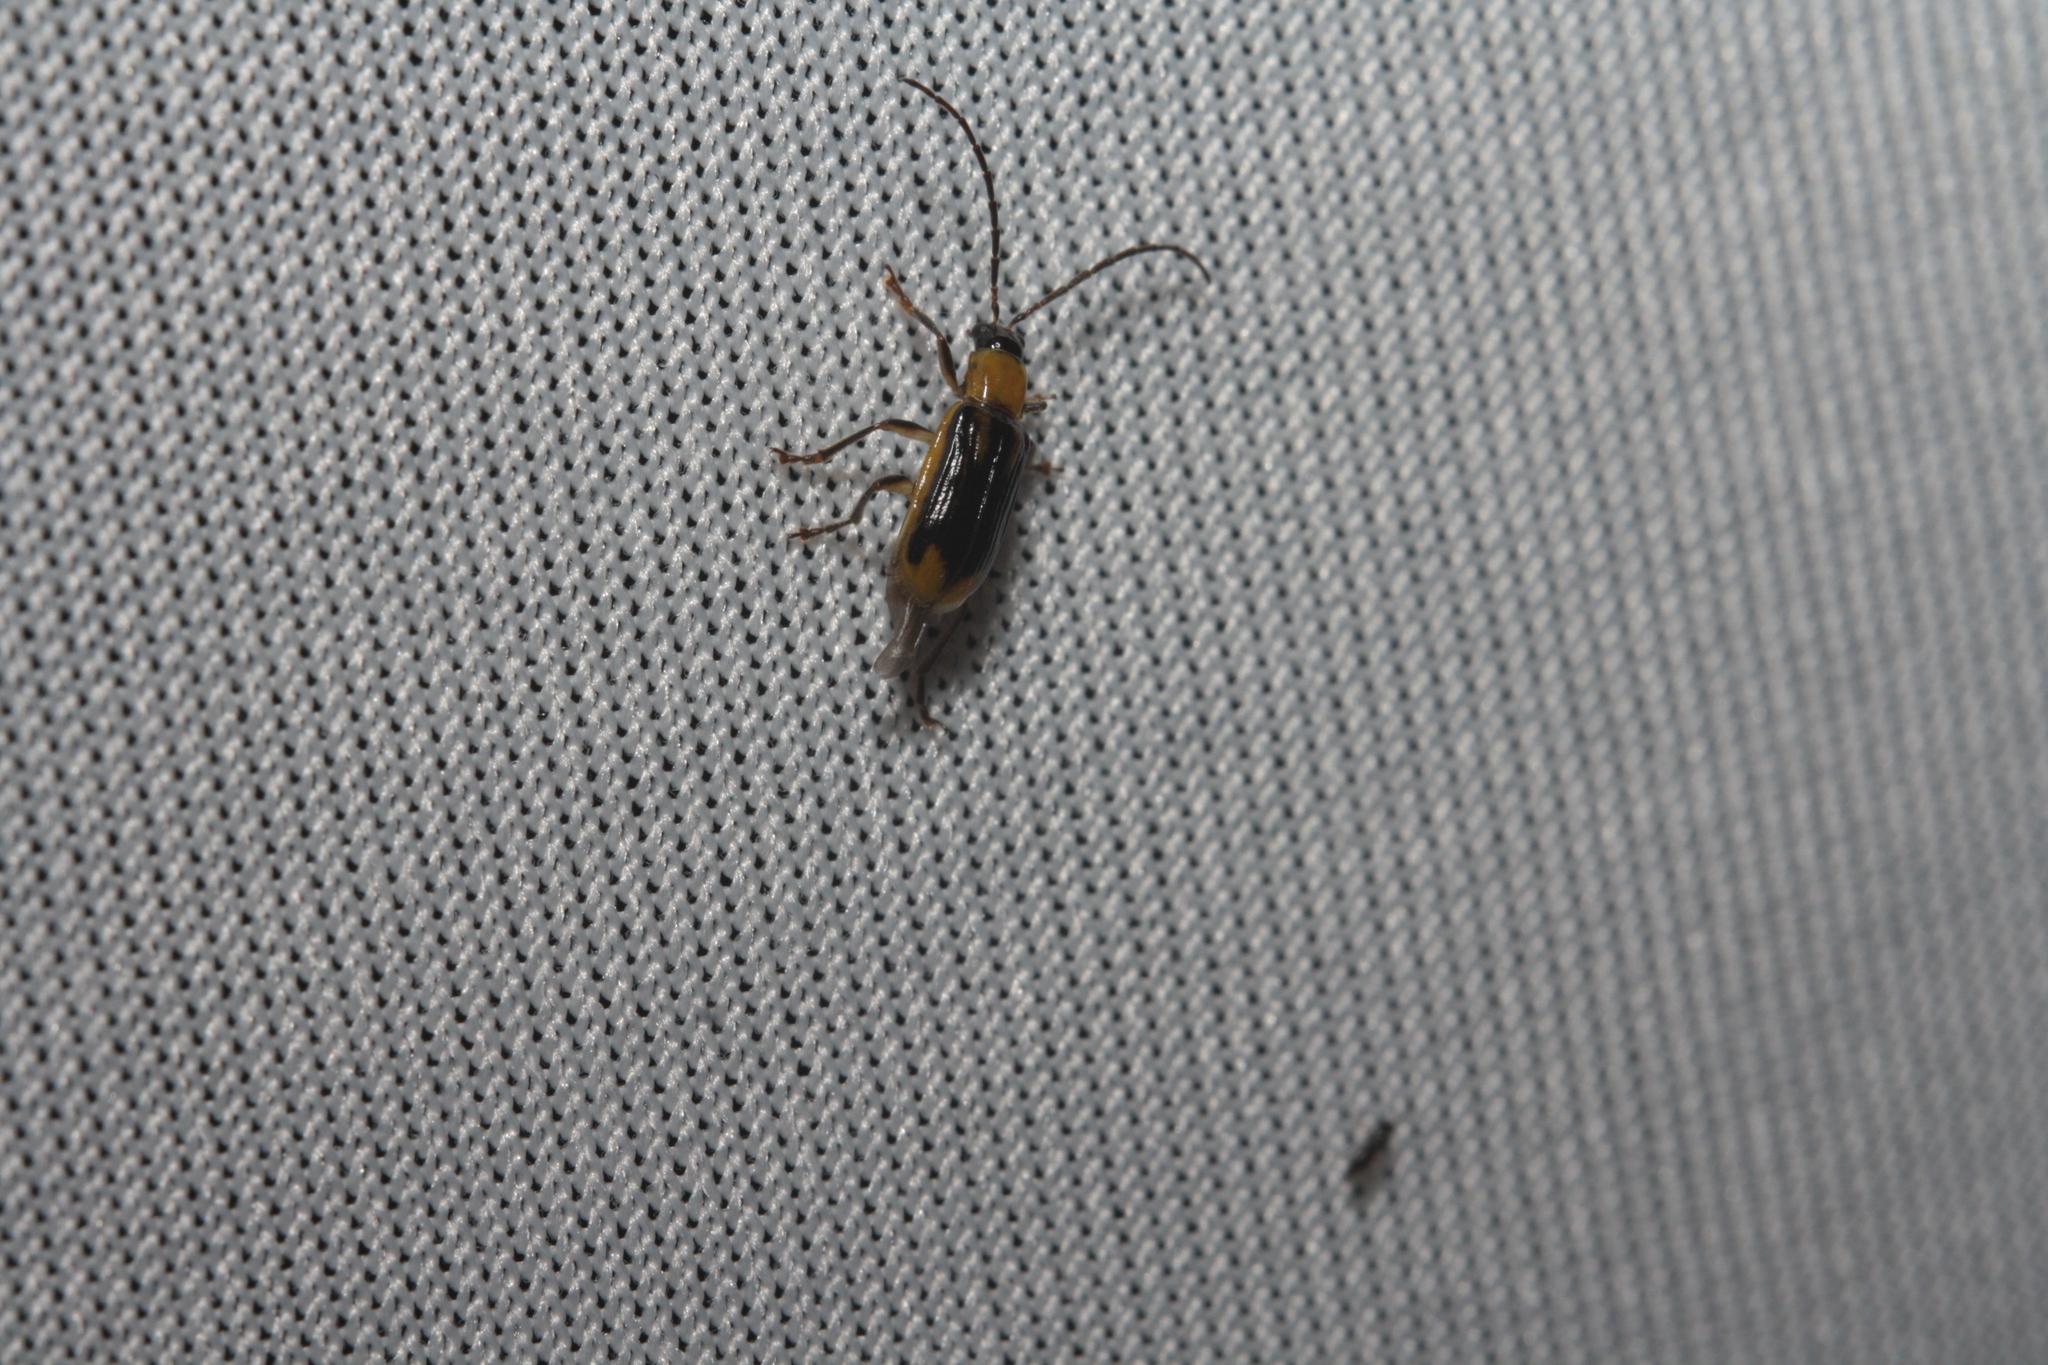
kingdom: Animalia
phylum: Arthropoda
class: Insecta
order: Coleoptera
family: Chrysomelidae
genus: Diabrotica
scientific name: Diabrotica virgifera
